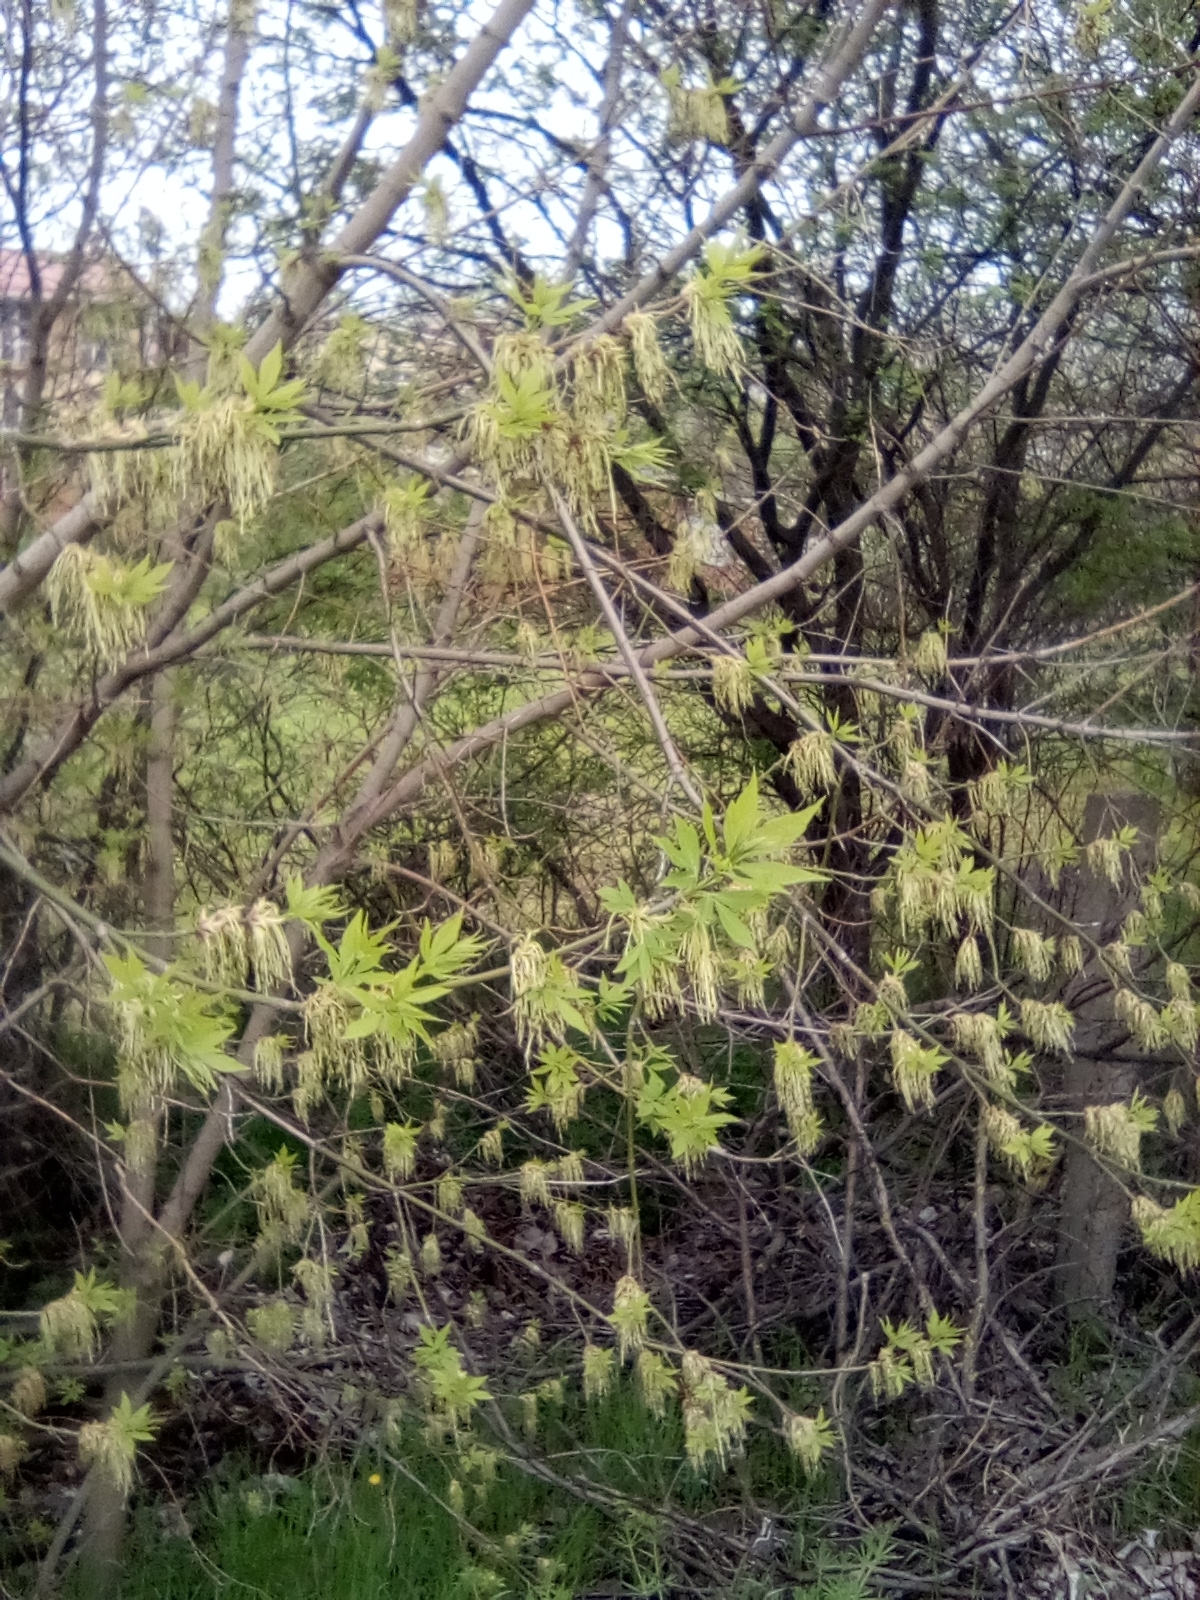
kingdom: Plantae
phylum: Tracheophyta
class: Magnoliopsida
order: Sapindales
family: Sapindaceae
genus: Acer
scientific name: Acer negundo
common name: Ashleaf maple
